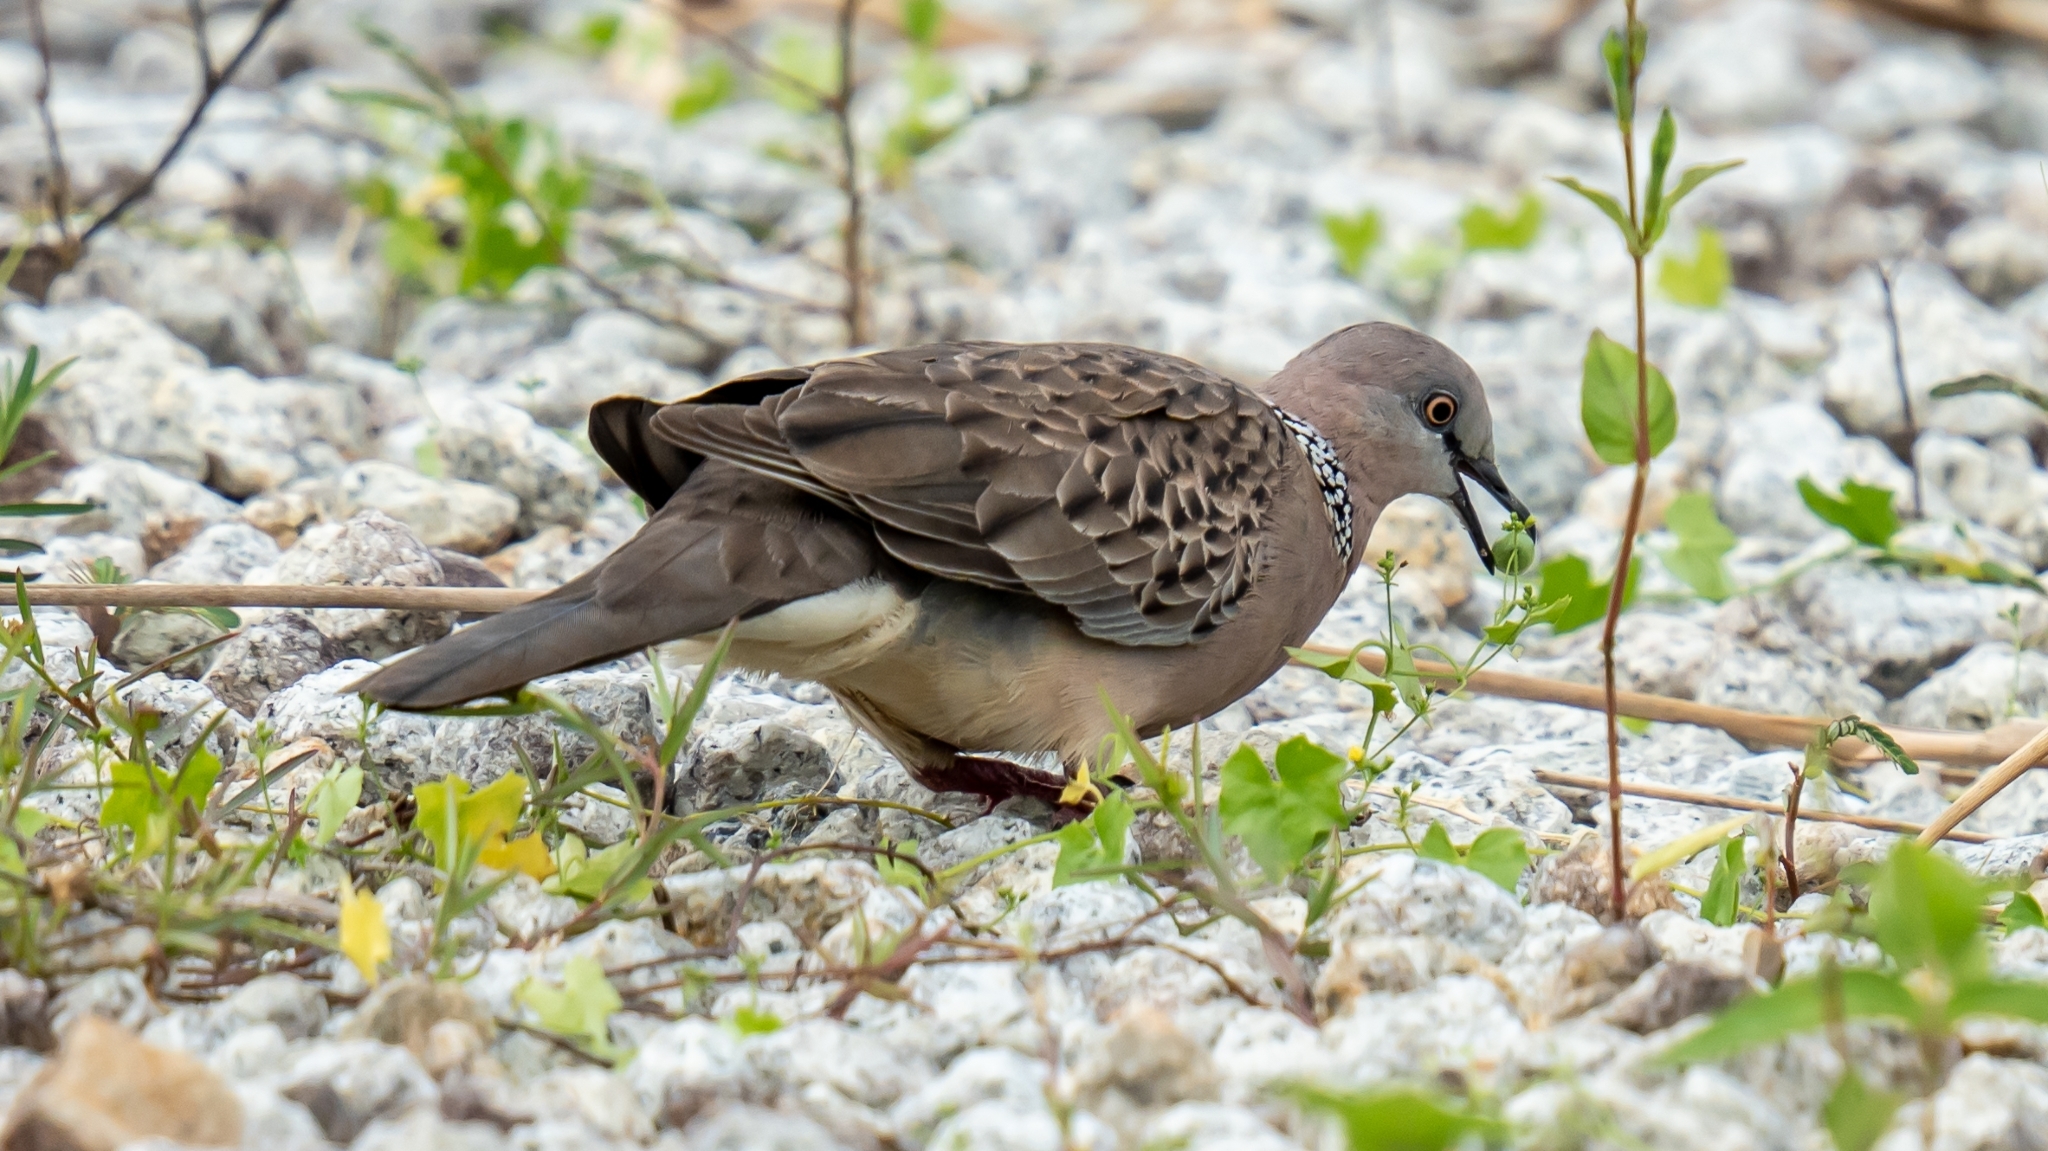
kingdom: Animalia
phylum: Chordata
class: Aves
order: Columbiformes
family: Columbidae
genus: Spilopelia
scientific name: Spilopelia chinensis
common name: Spotted dove
